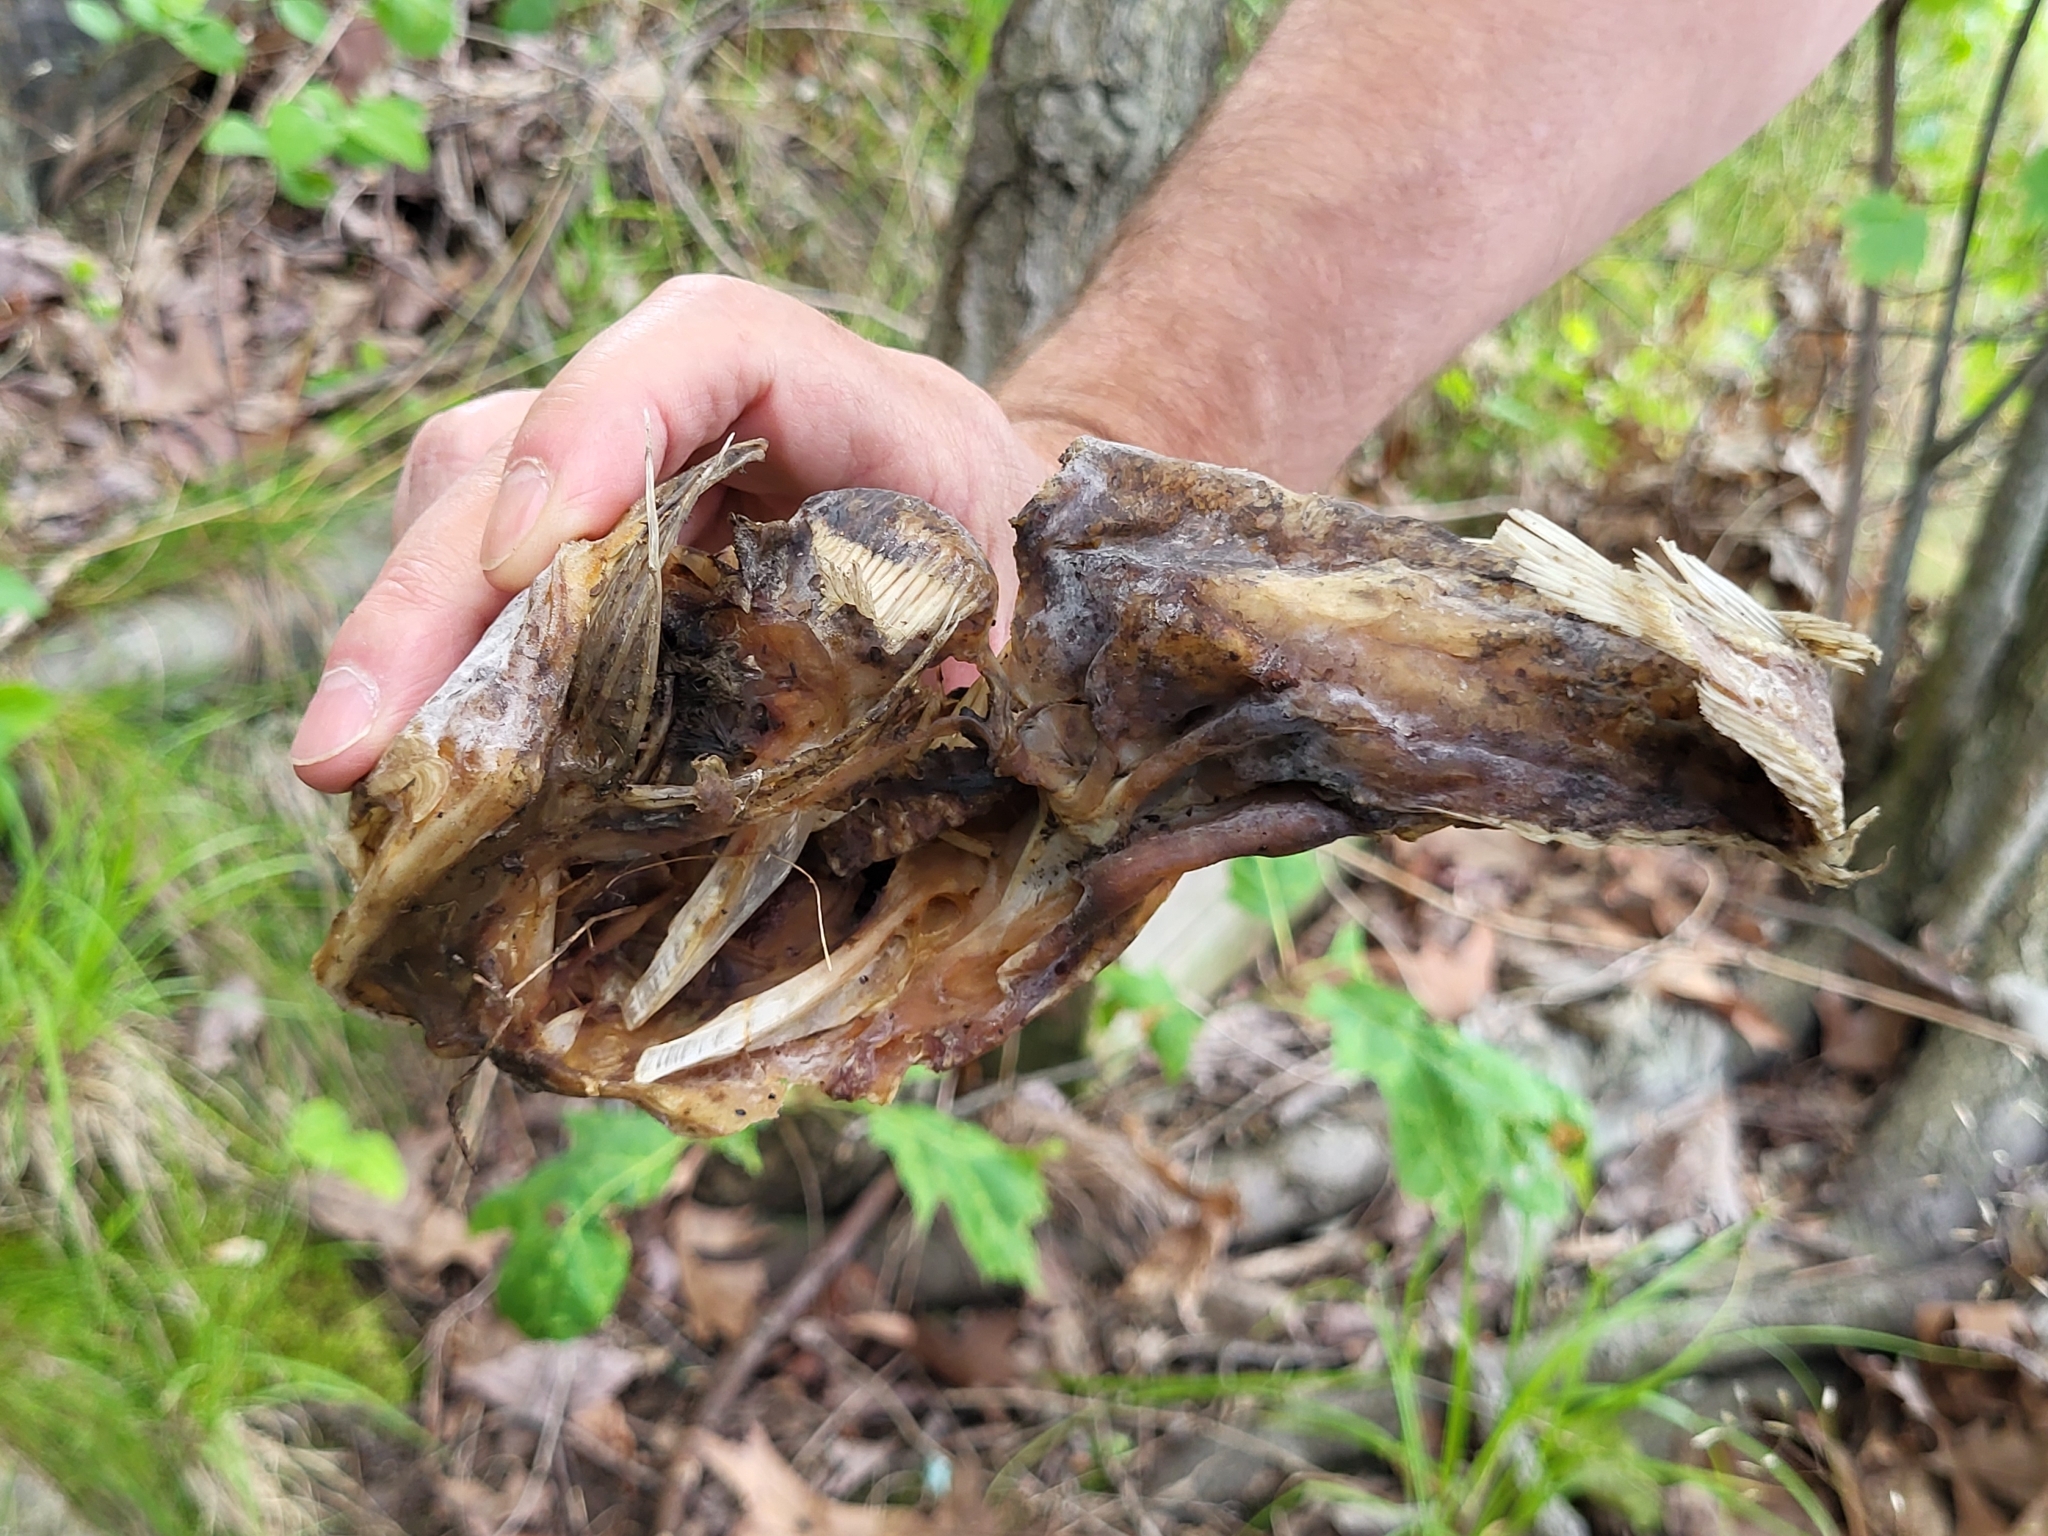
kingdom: Animalia
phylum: Chordata
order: Batrachoidiformes
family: Batrachoididae
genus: Opsanus
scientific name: Opsanus tau
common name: Oyster toadfish
